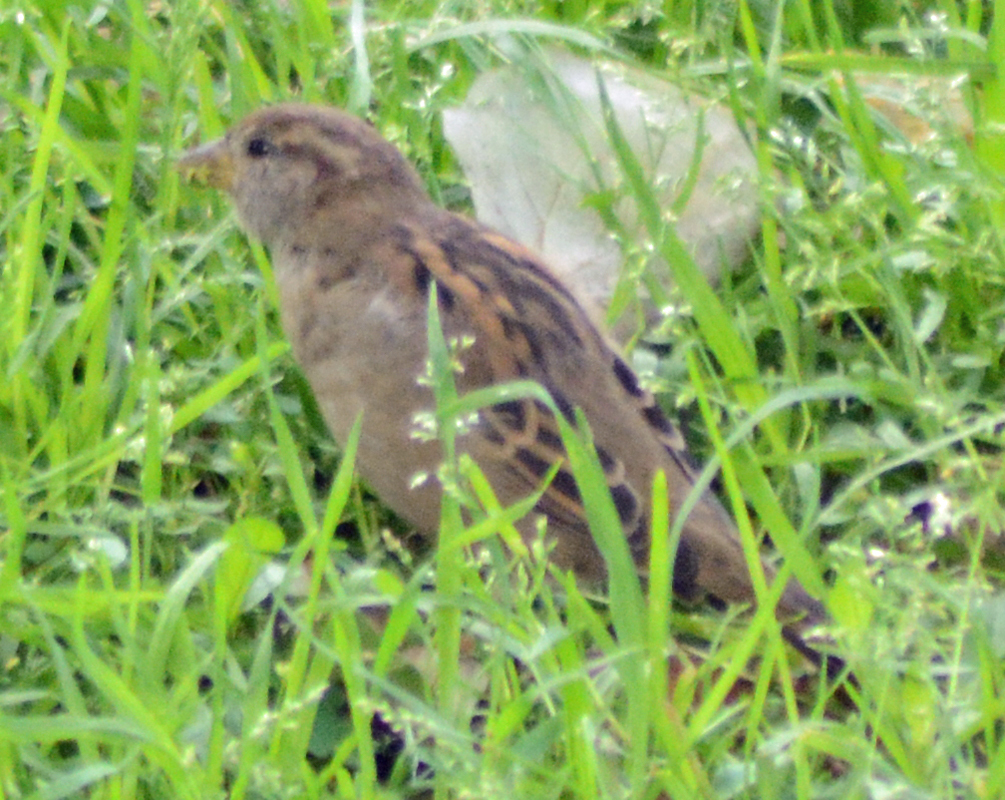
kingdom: Animalia
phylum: Chordata
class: Aves
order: Passeriformes
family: Passeridae
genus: Passer
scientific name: Passer domesticus
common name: House sparrow
